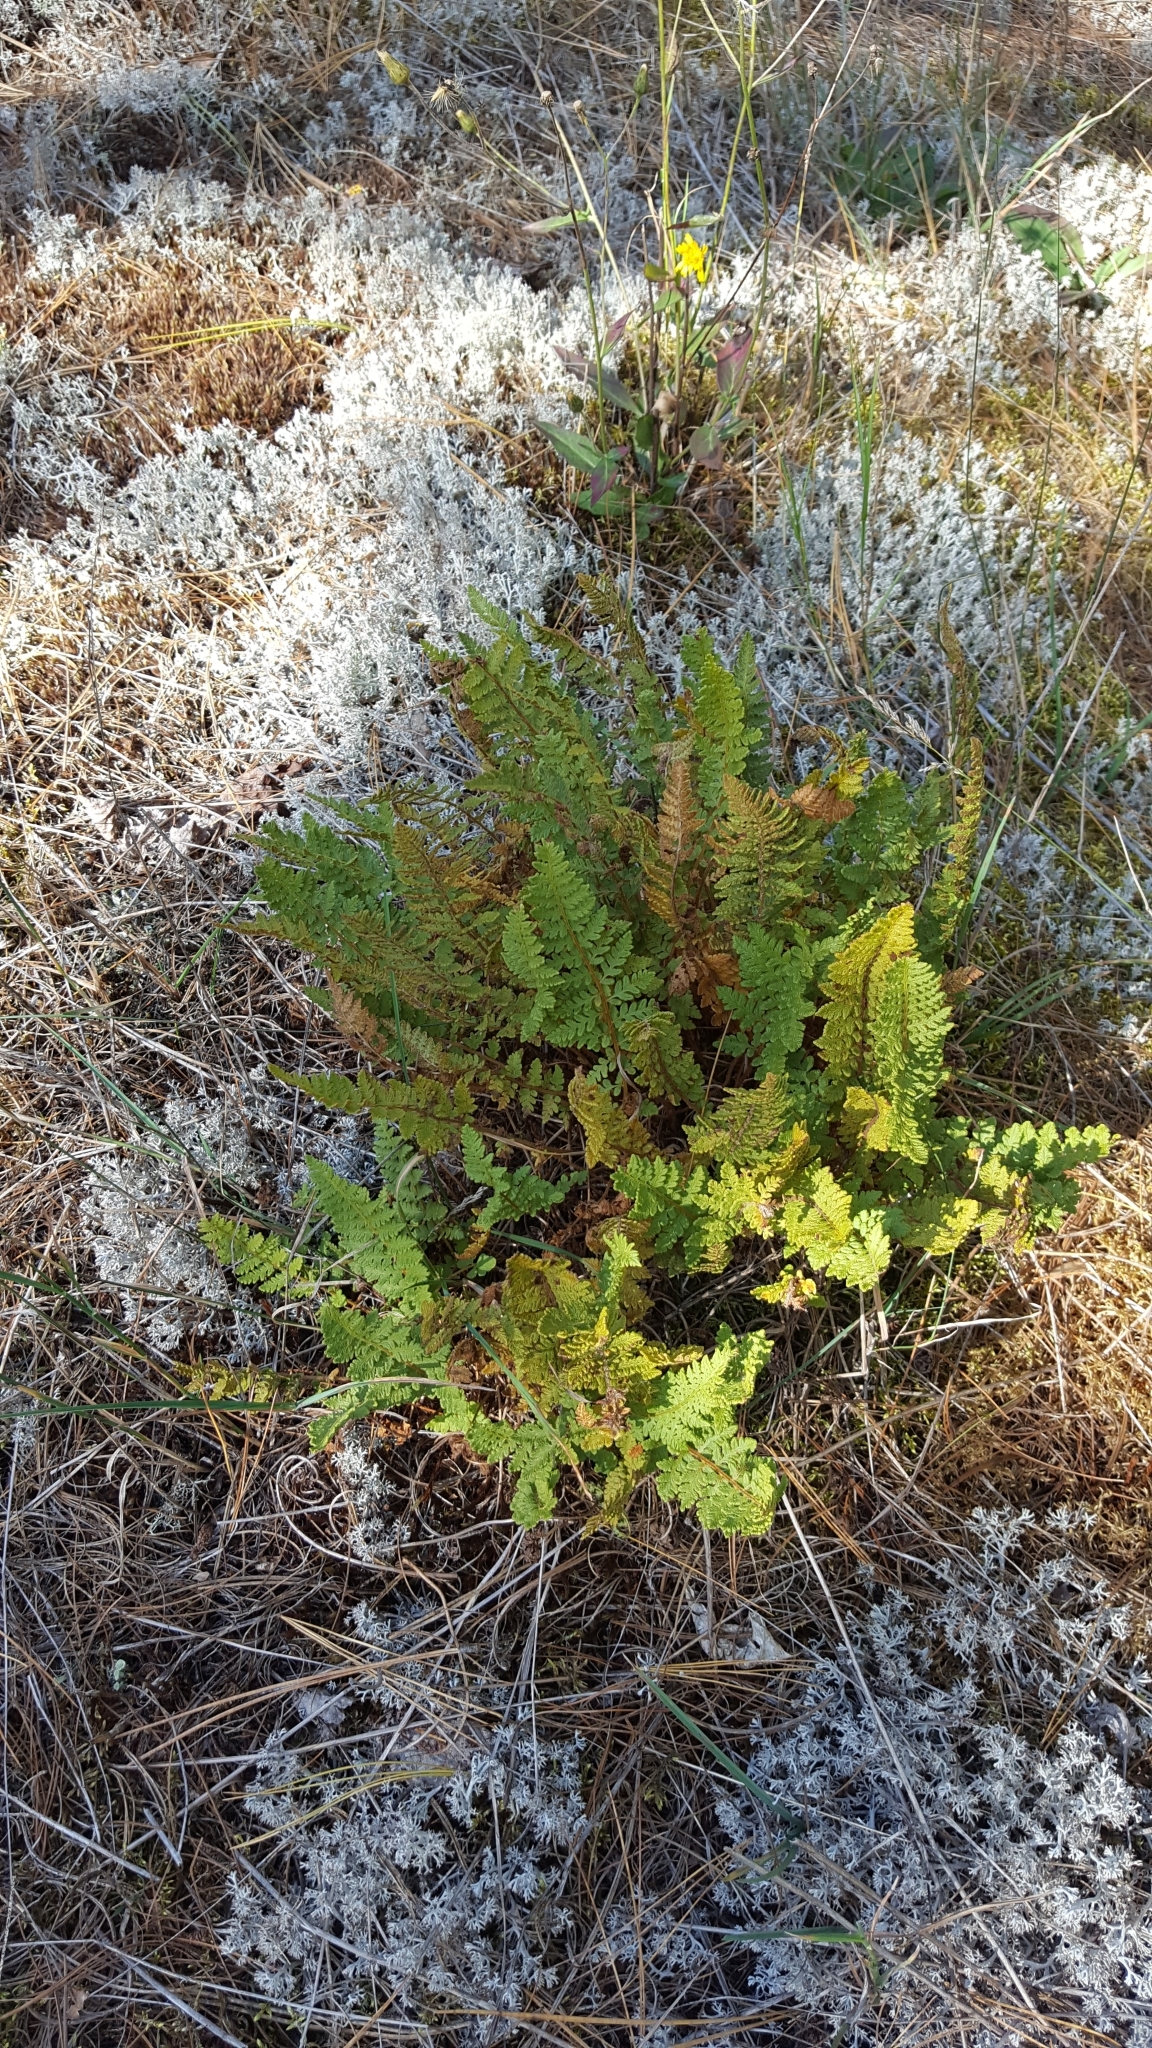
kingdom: Plantae
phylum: Tracheophyta
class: Polypodiopsida
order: Polypodiales
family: Woodsiaceae
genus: Woodsia
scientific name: Woodsia ilvensis
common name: Fragrant woodsia
